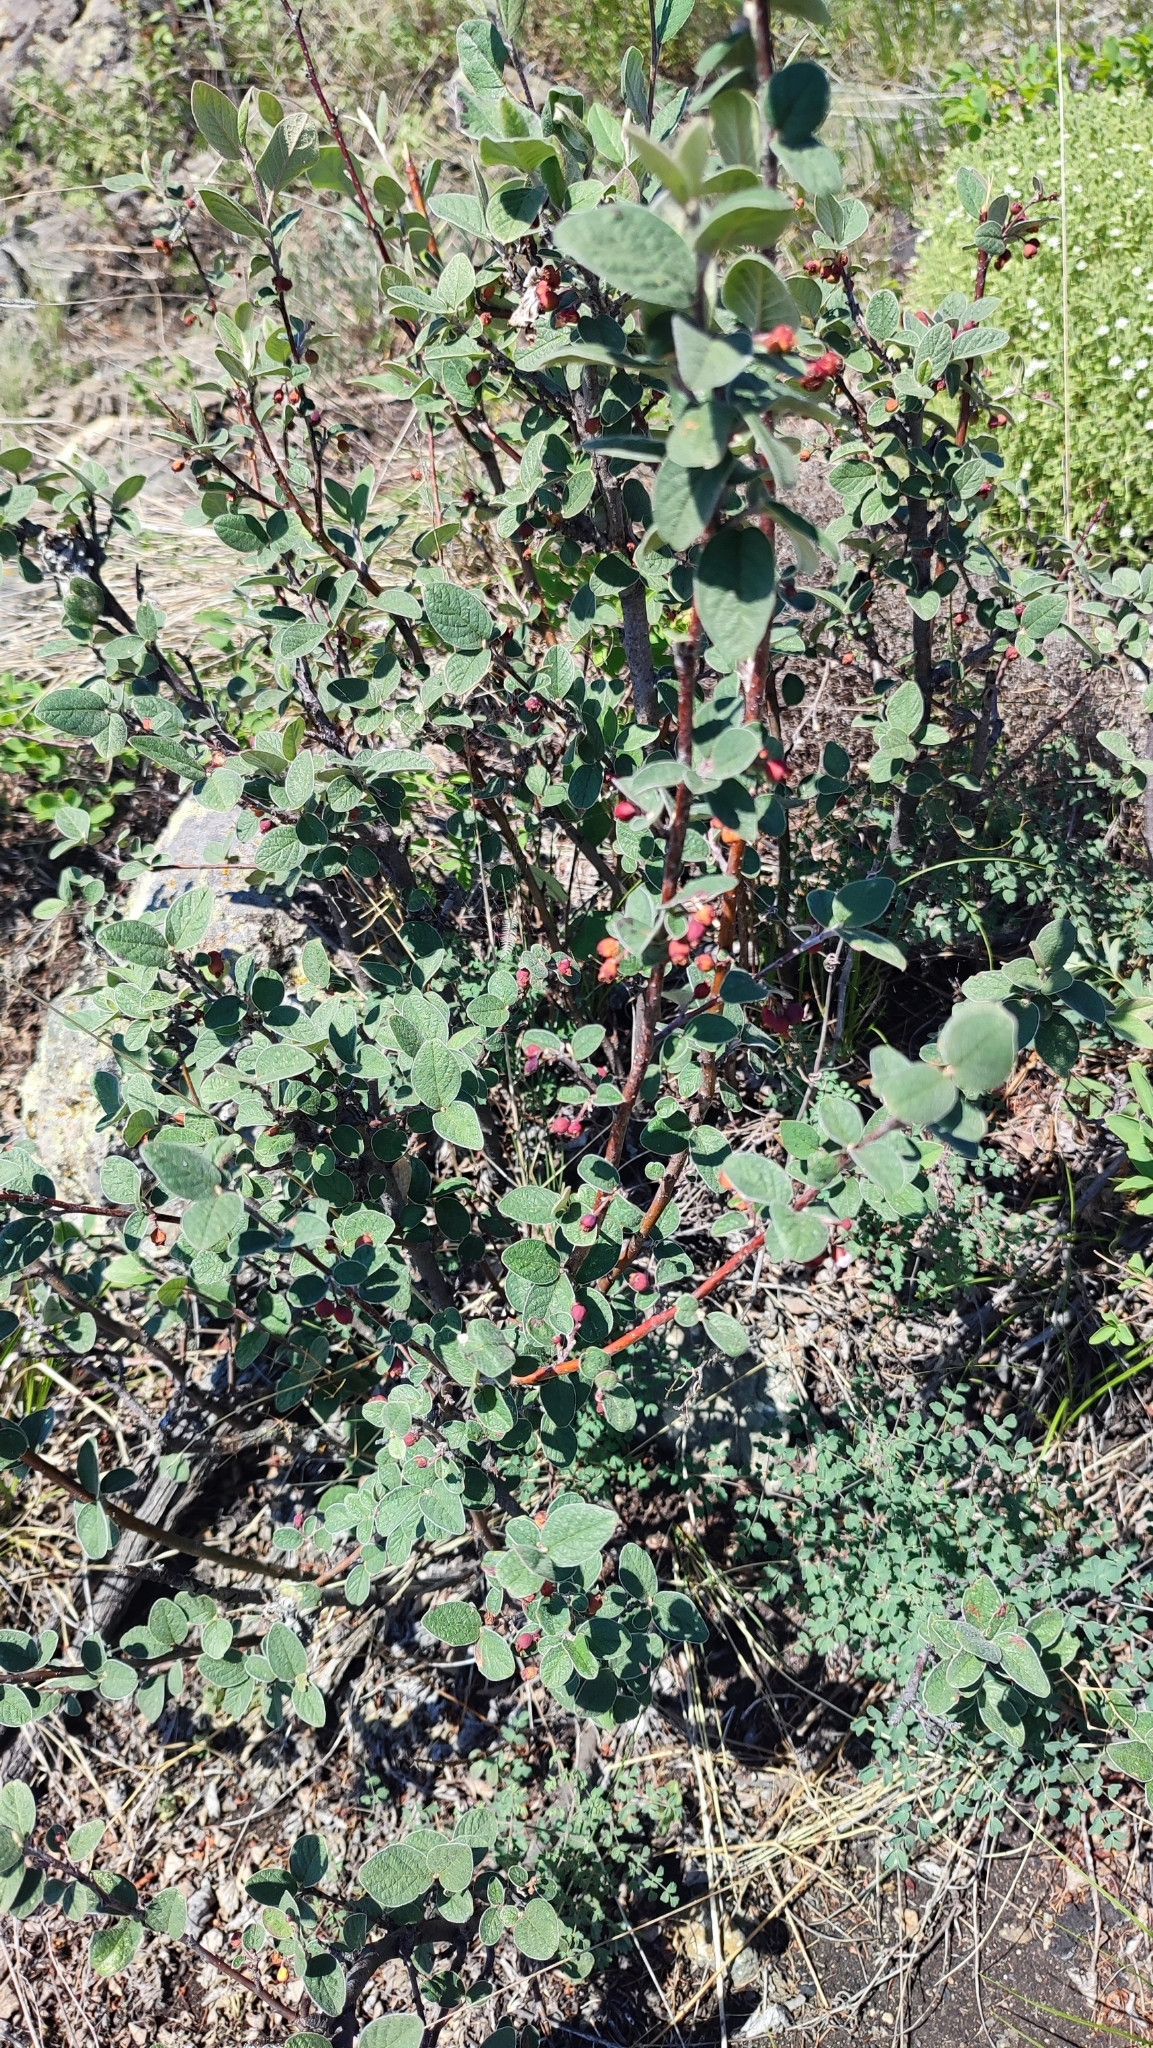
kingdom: Plantae
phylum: Tracheophyta
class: Magnoliopsida
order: Rosales
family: Rosaceae
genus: Cotoneaster
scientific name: Cotoneaster melanocarpus
